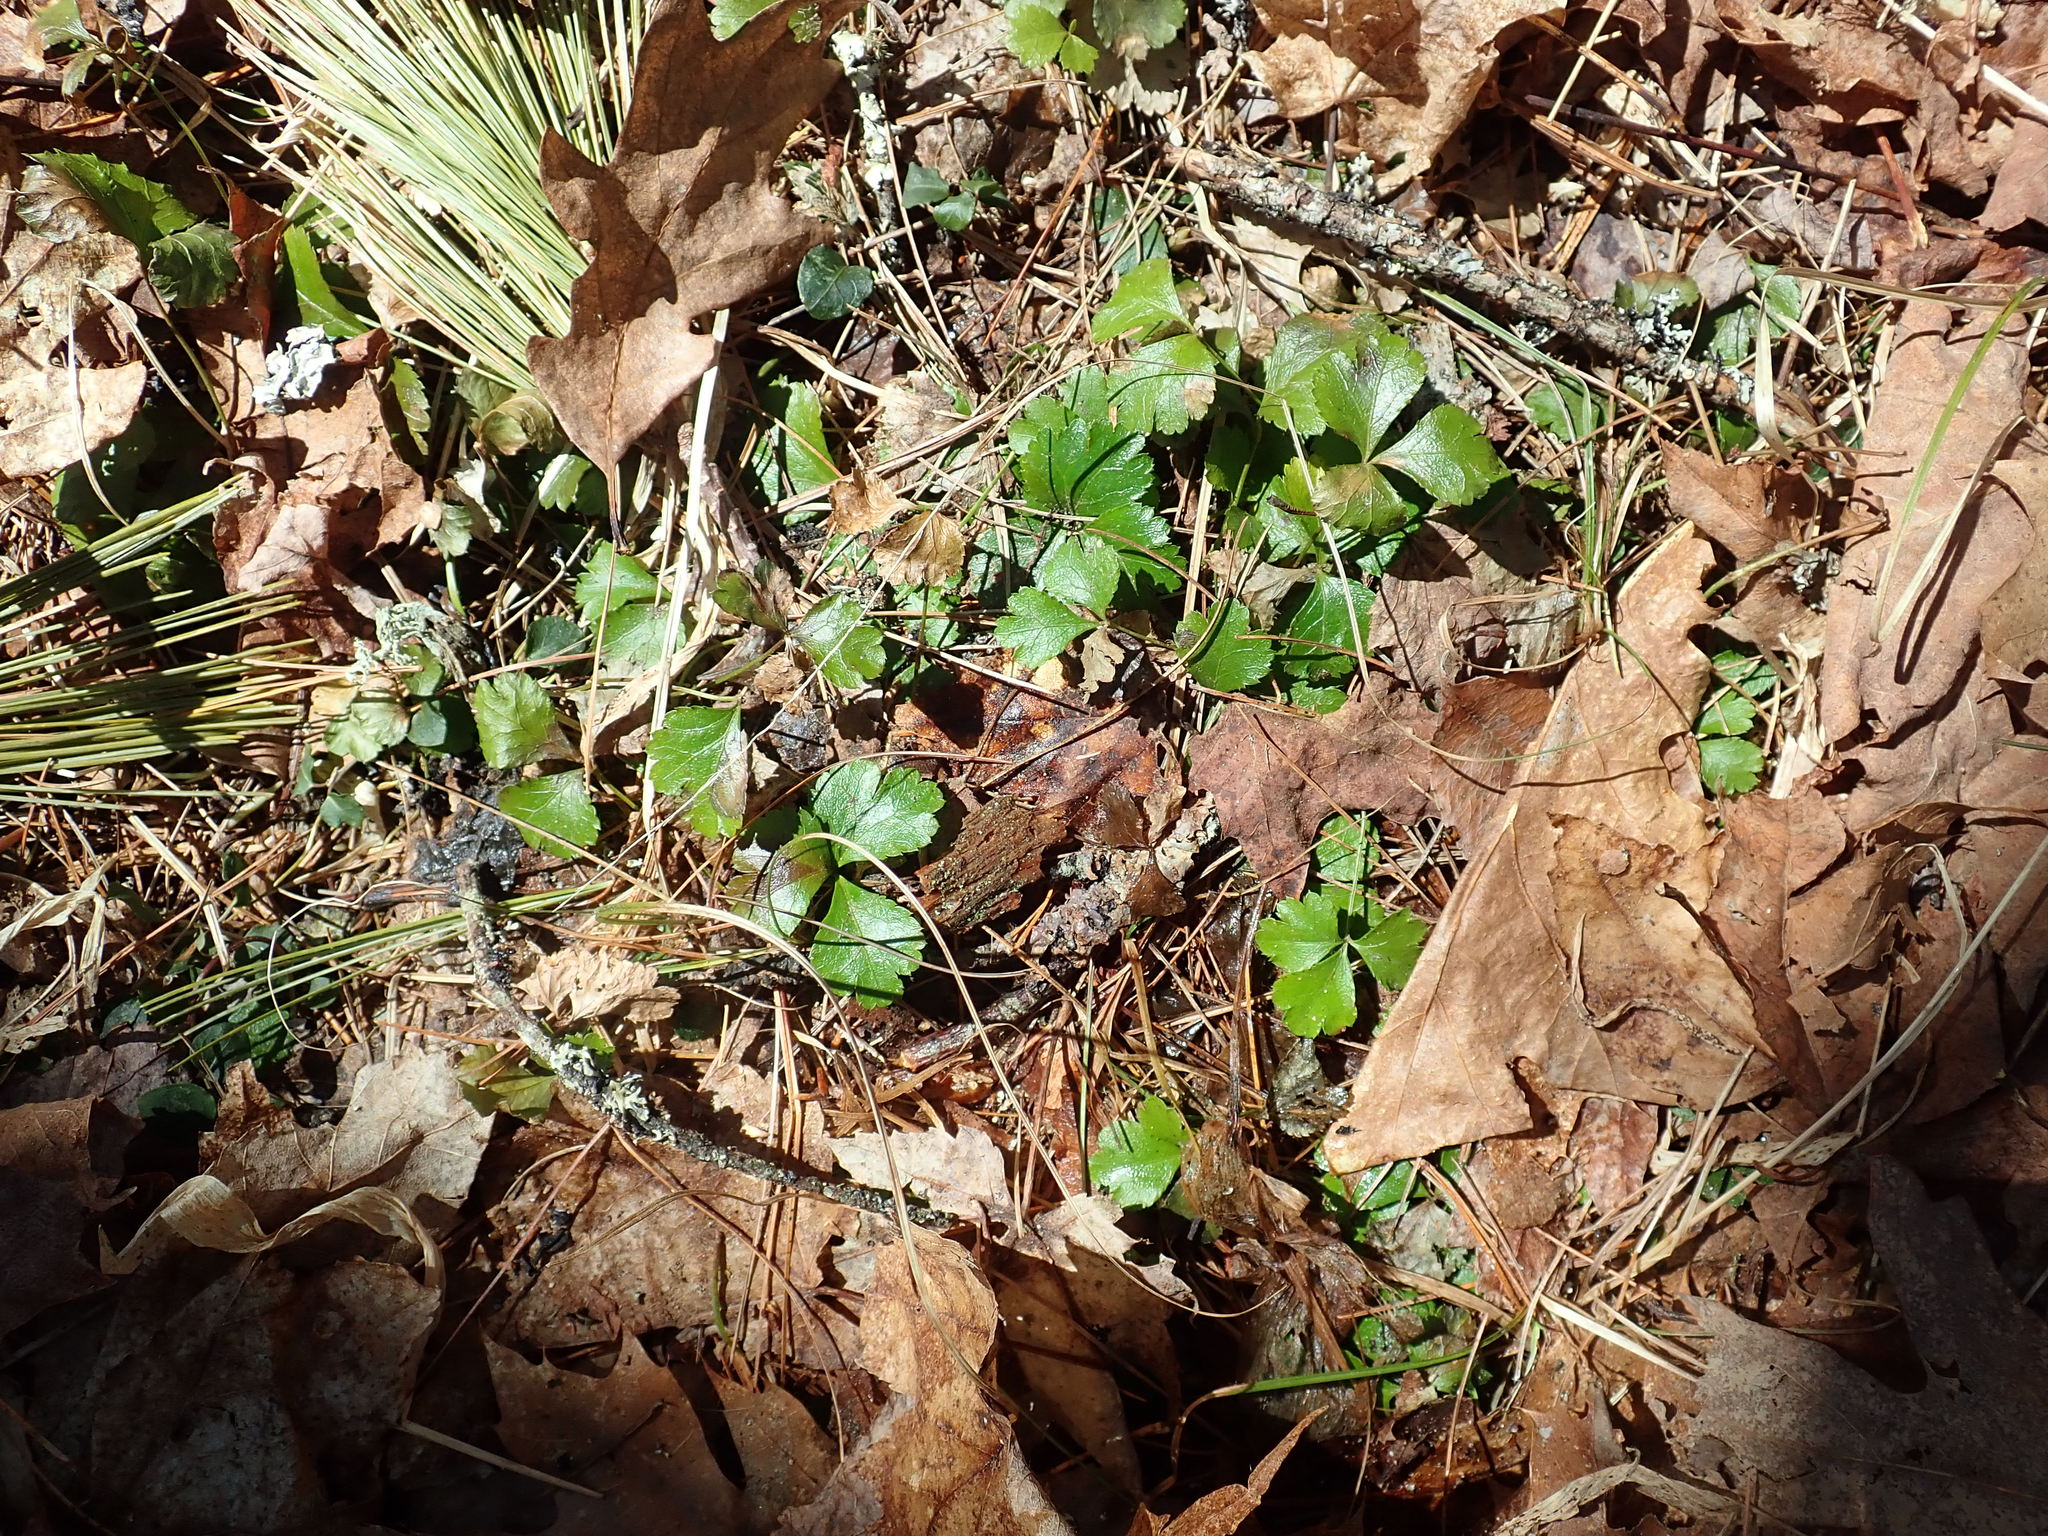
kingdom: Plantae
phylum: Tracheophyta
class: Magnoliopsida
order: Ranunculales
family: Ranunculaceae
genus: Coptis
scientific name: Coptis trifolia
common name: Canker-root
